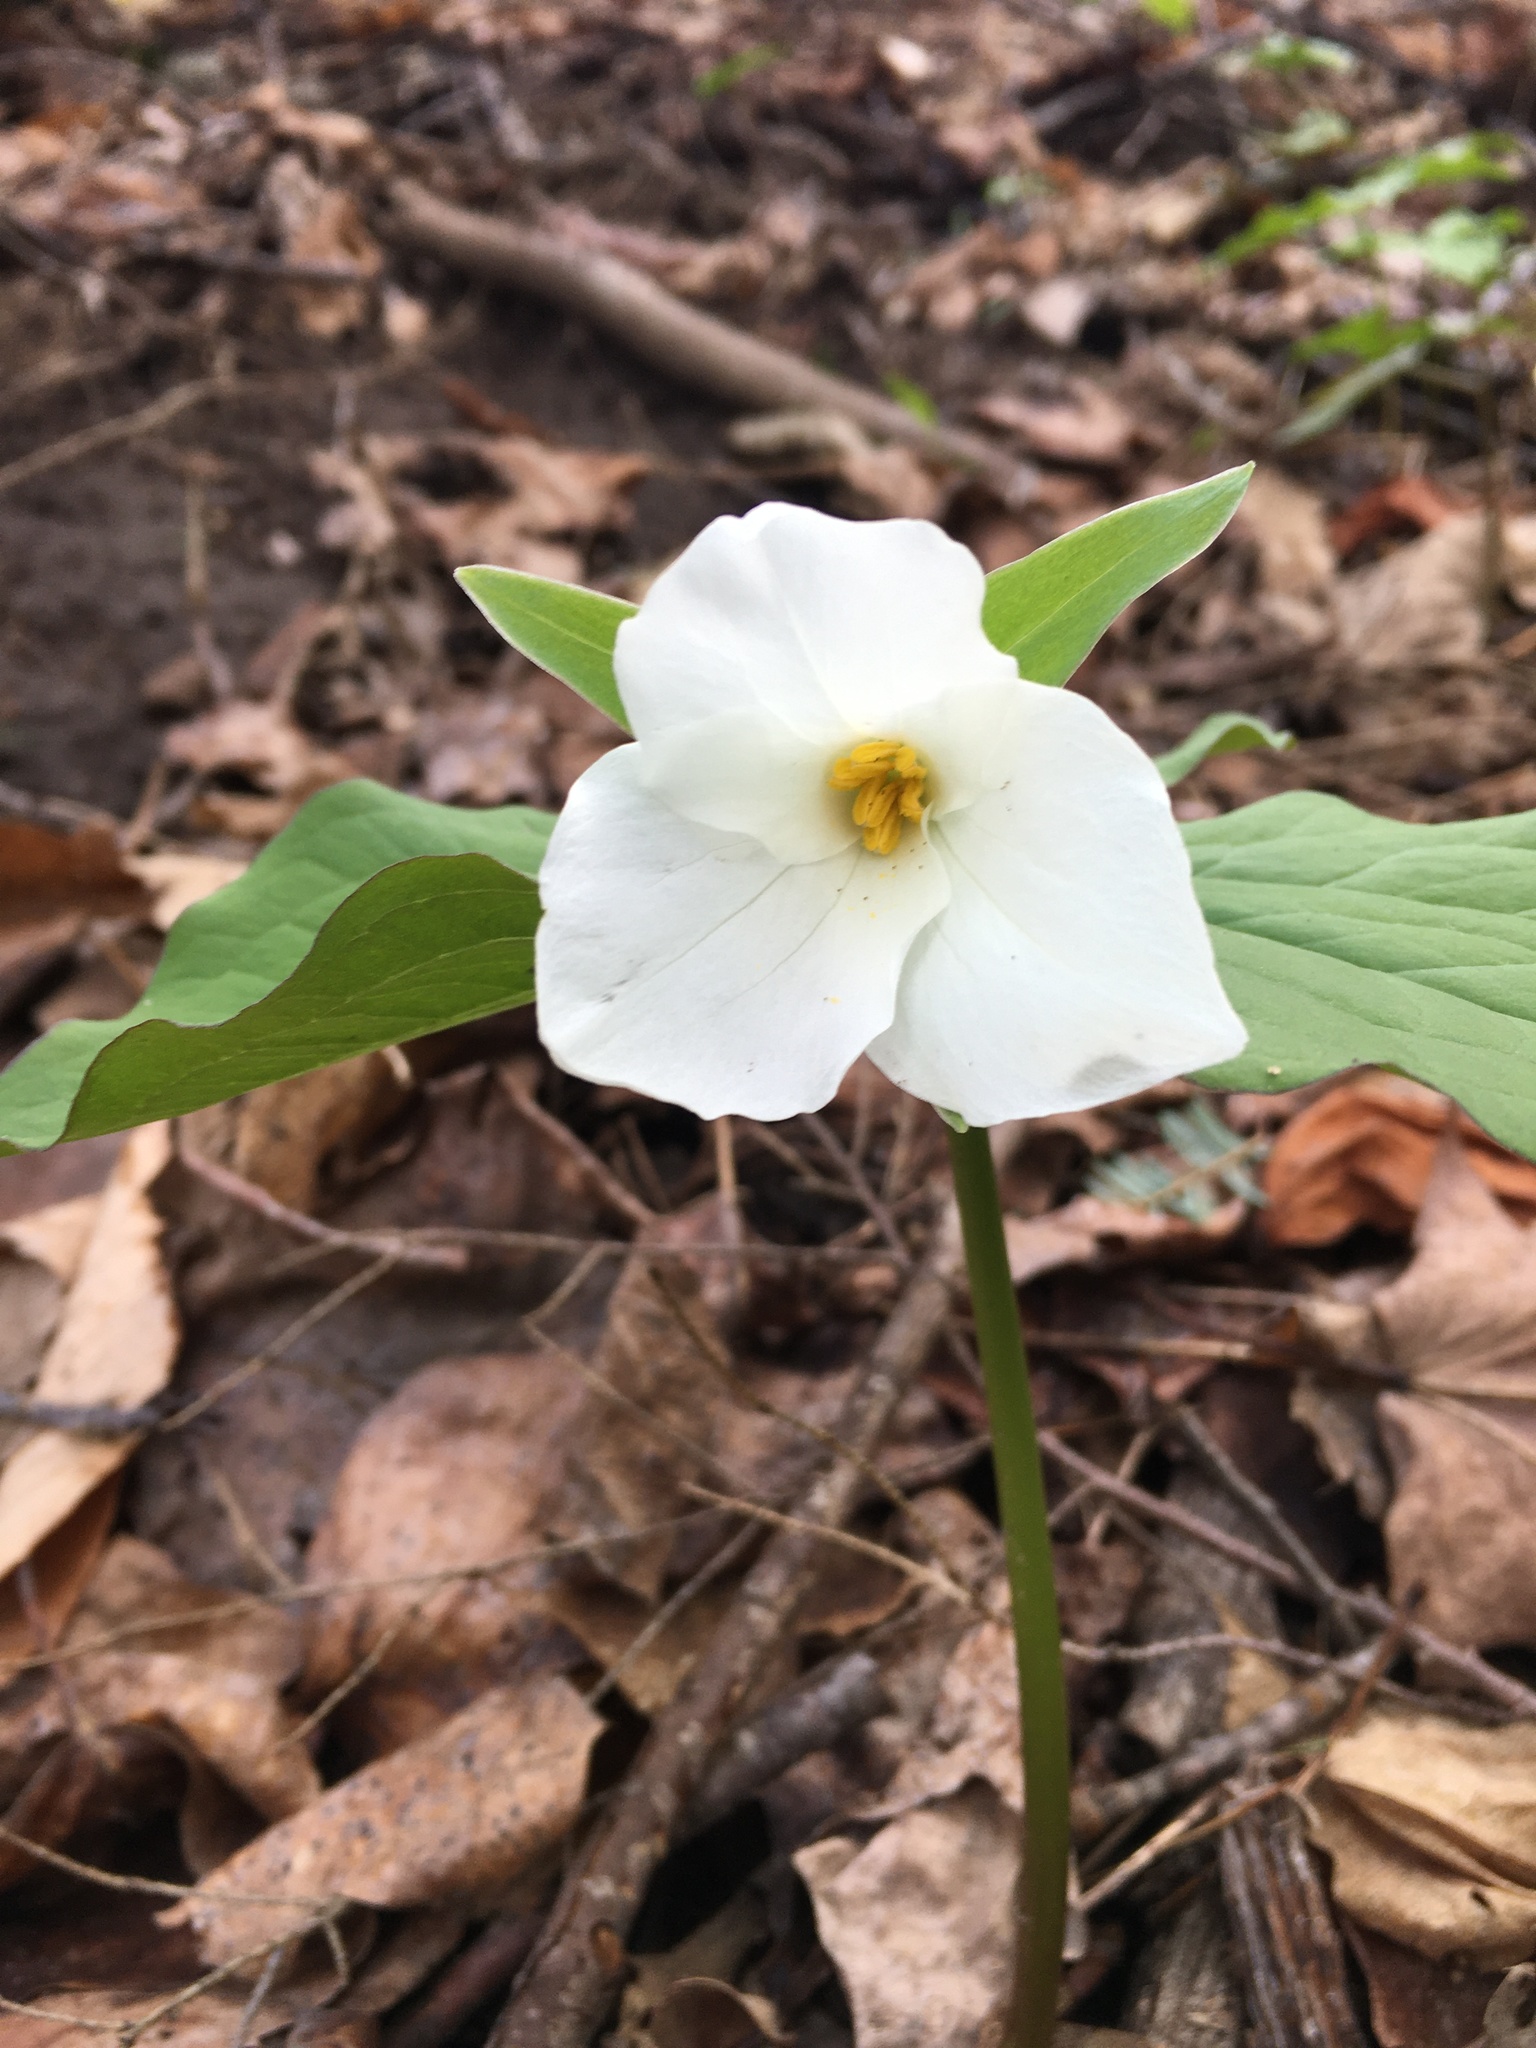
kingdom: Plantae
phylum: Tracheophyta
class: Liliopsida
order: Liliales
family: Melanthiaceae
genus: Trillium
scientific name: Trillium grandiflorum
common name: Great white trillium
